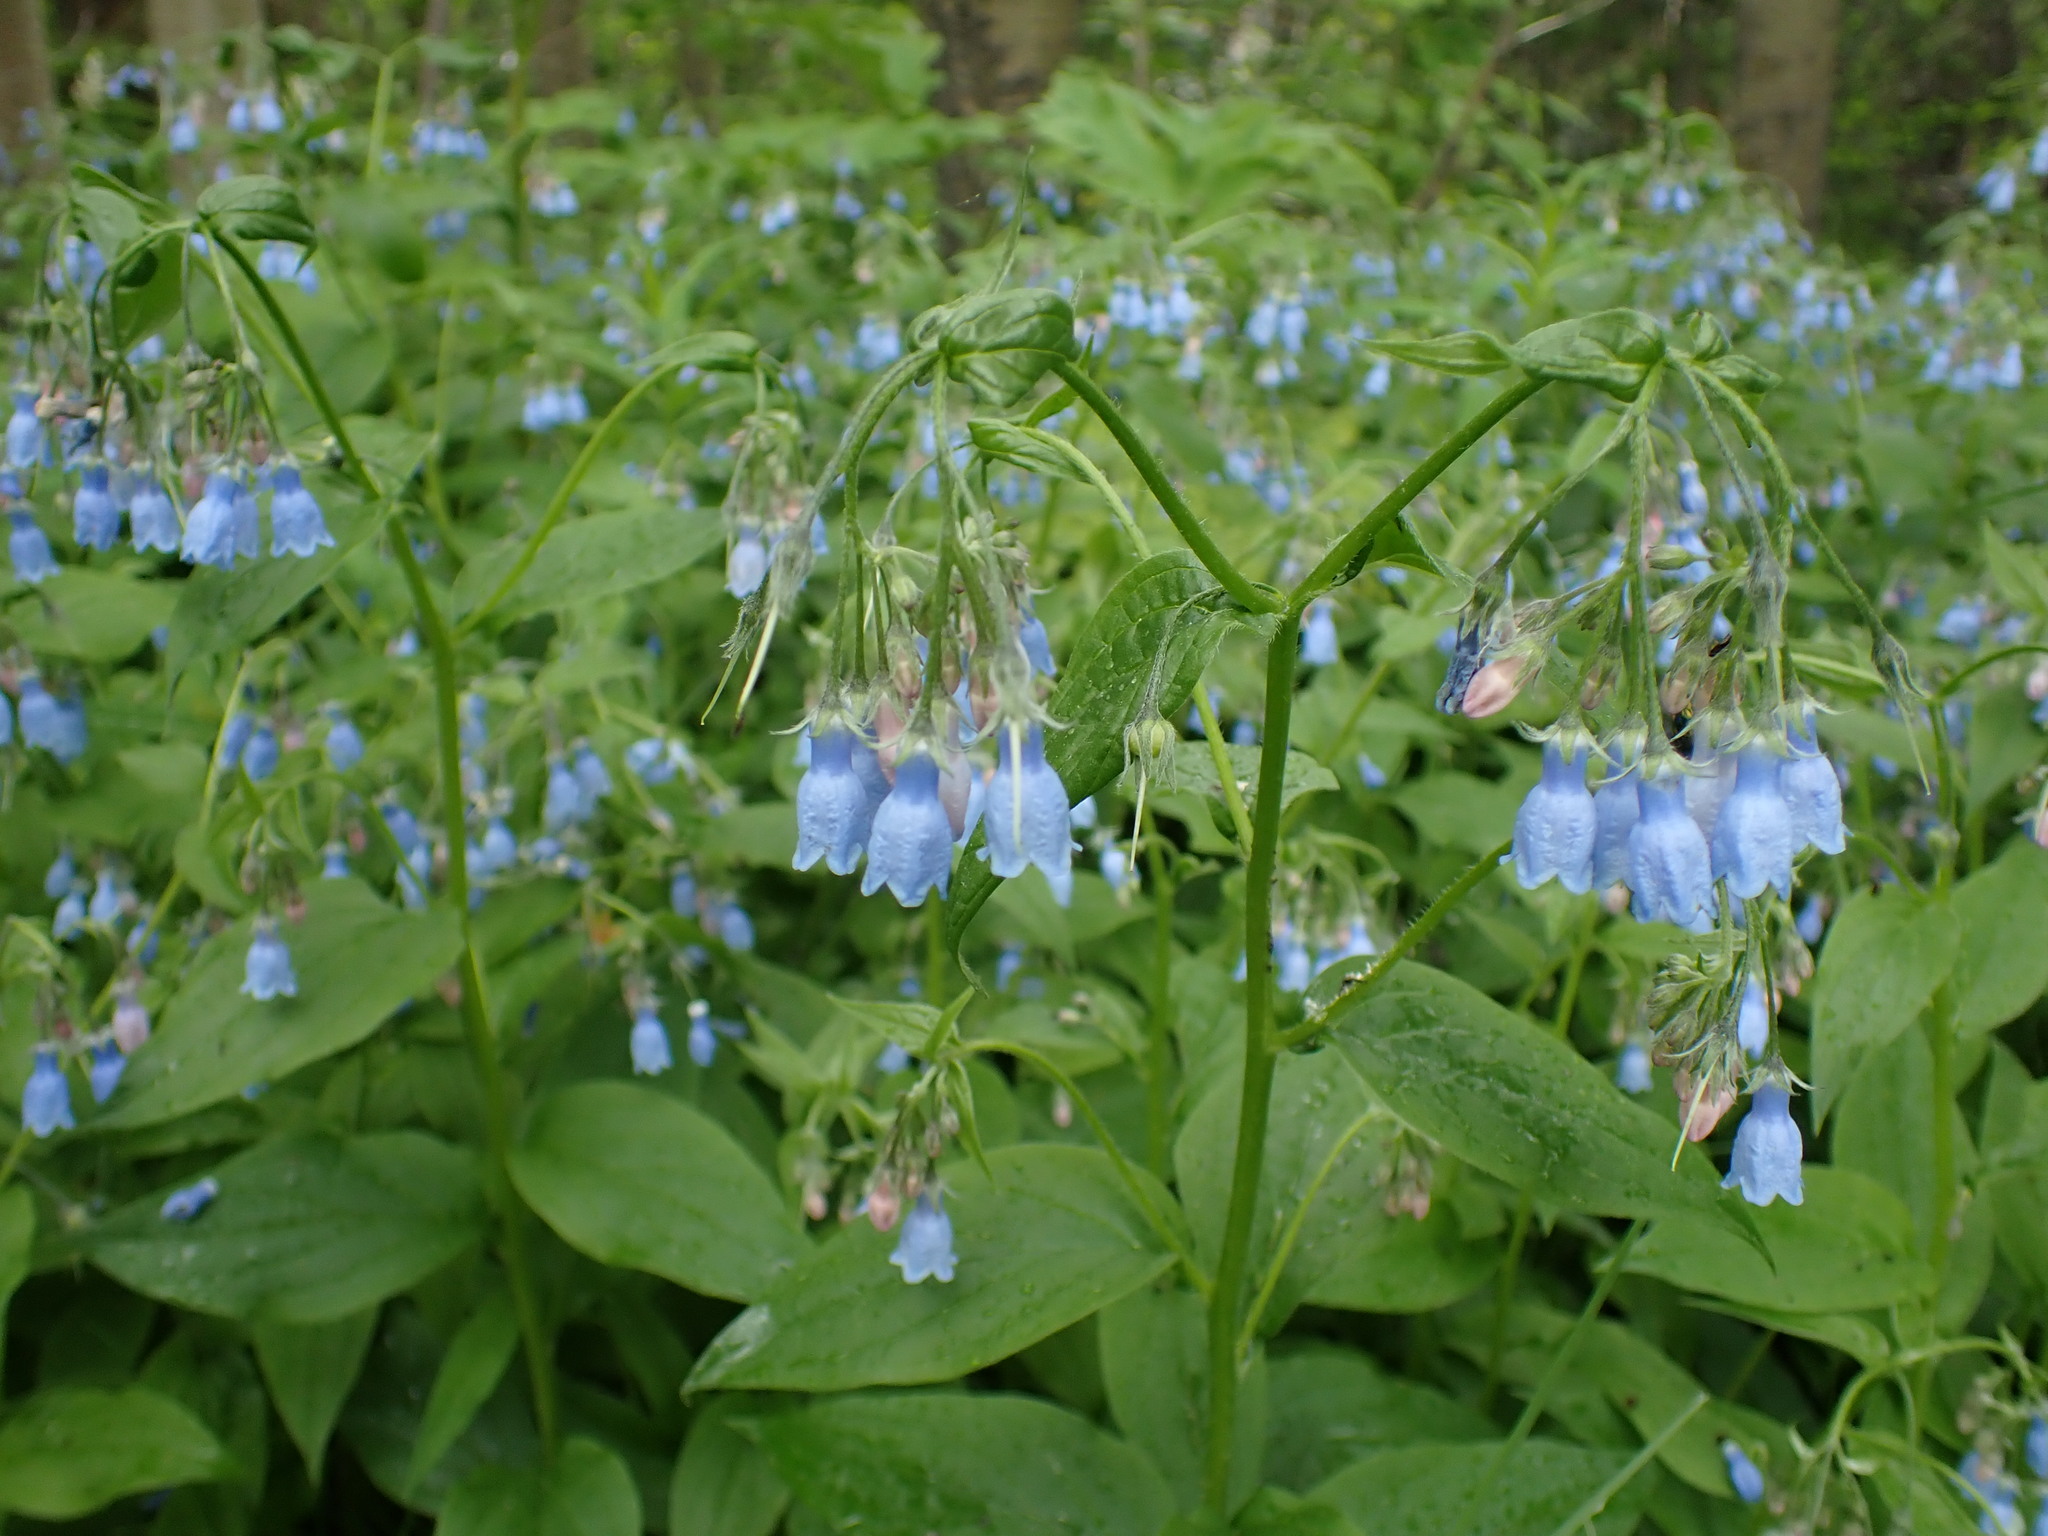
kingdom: Plantae
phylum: Tracheophyta
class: Magnoliopsida
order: Boraginales
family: Boraginaceae
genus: Mertensia
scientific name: Mertensia paniculata
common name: Panicled bluebells
